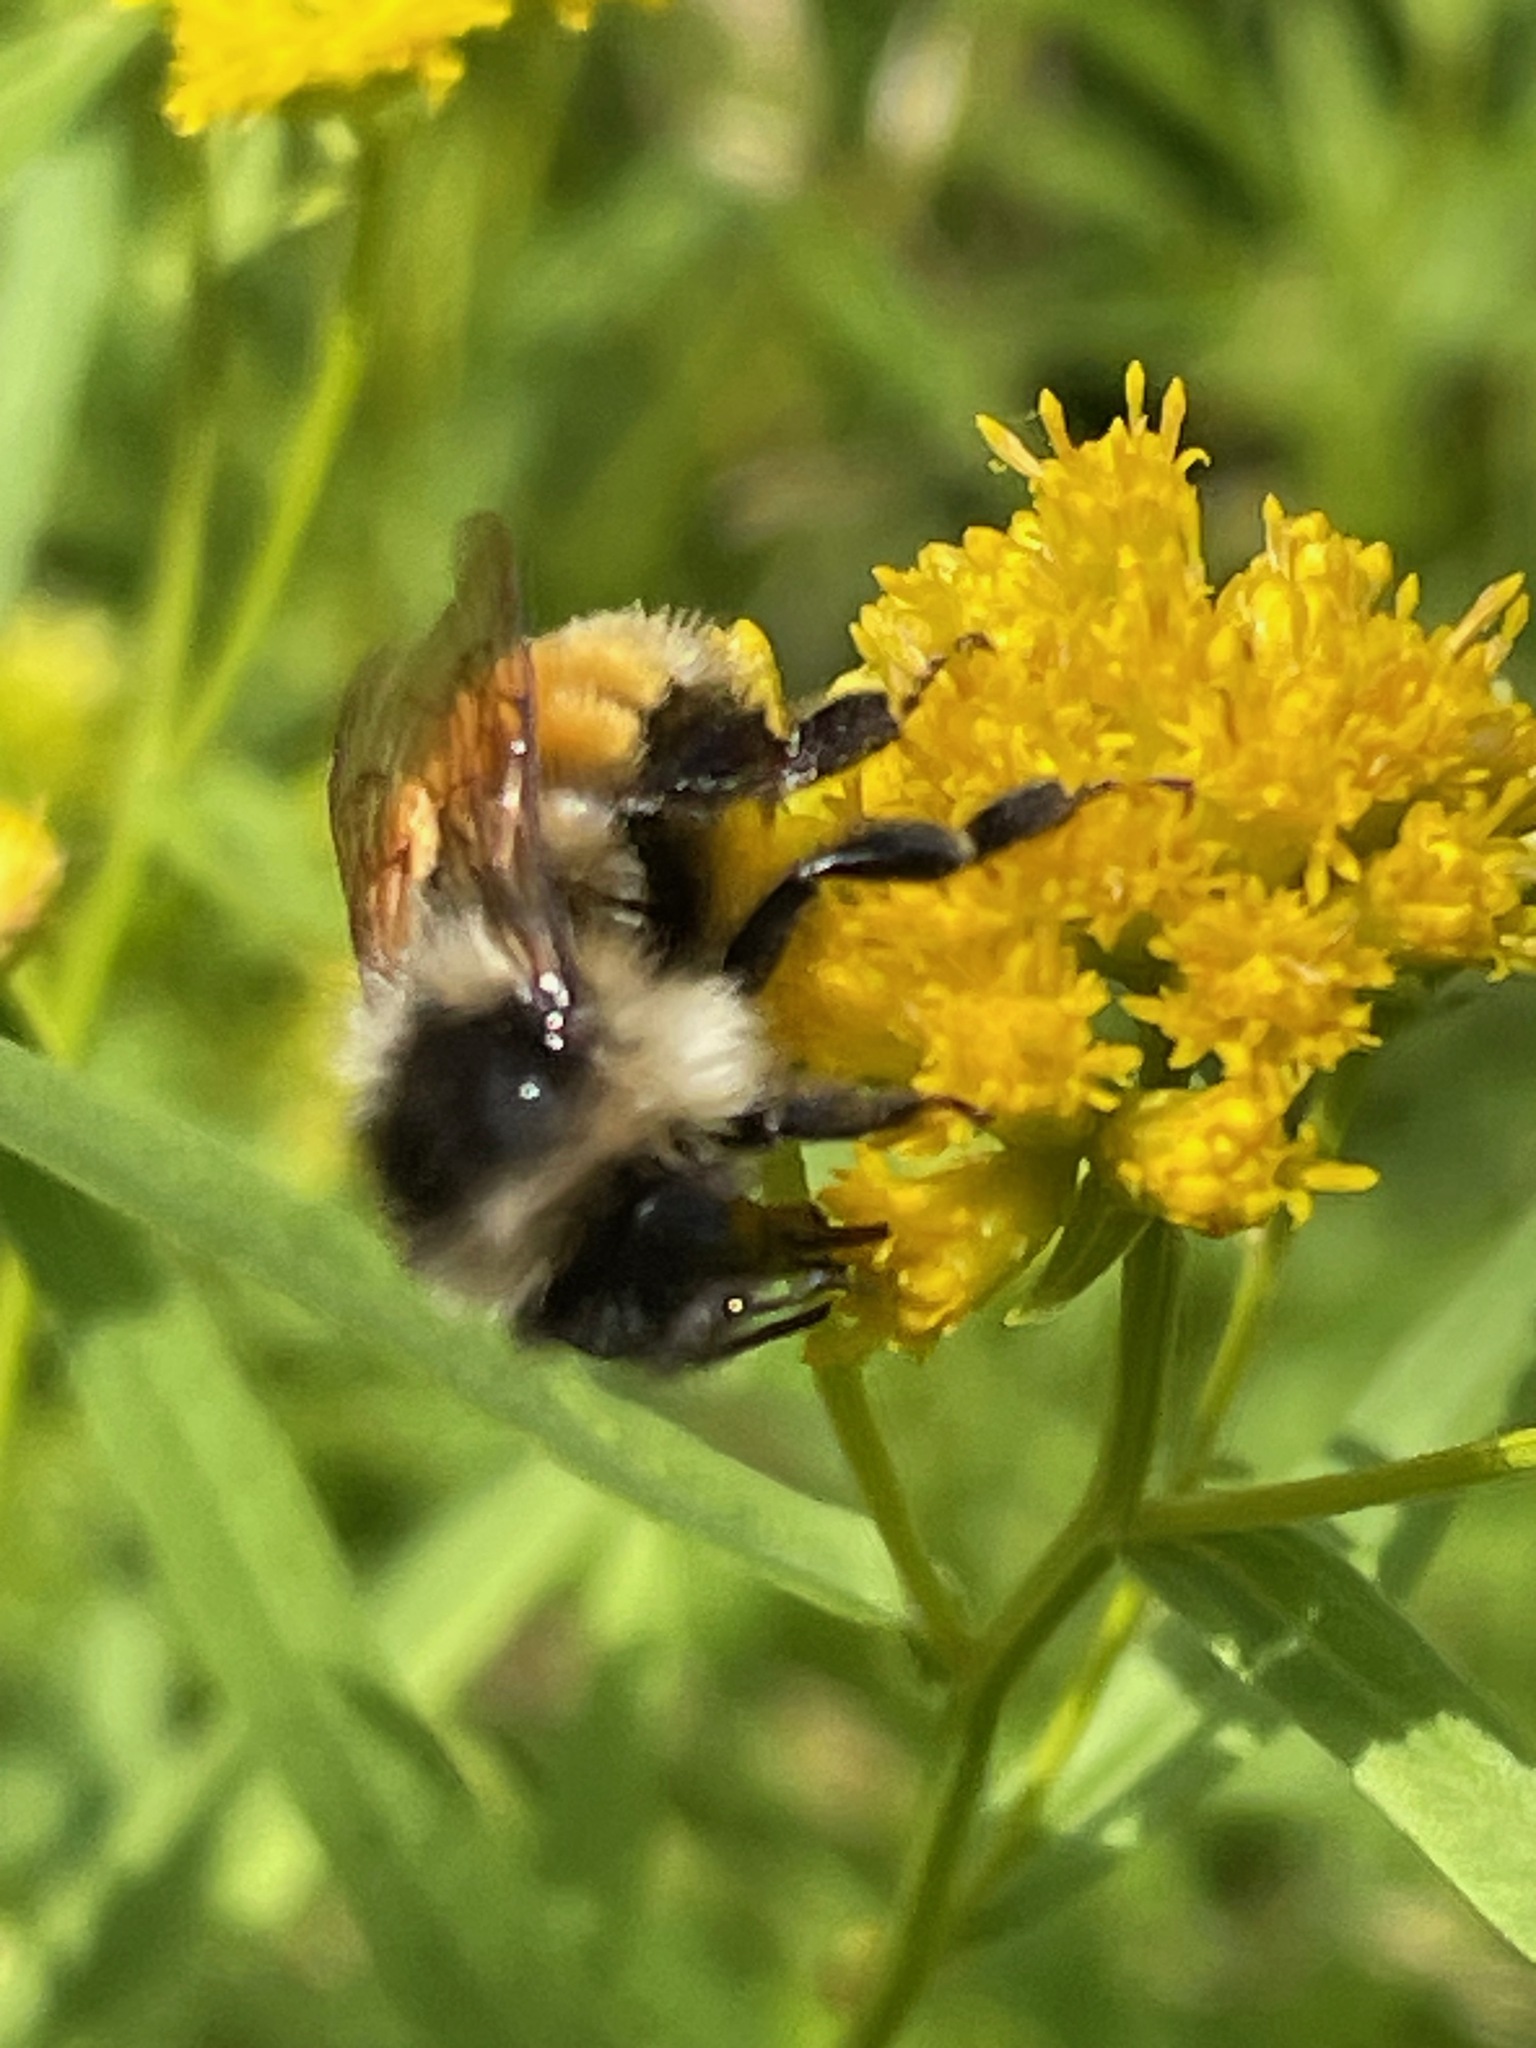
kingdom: Animalia
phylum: Arthropoda
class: Insecta
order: Hymenoptera
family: Apidae
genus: Bombus
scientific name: Bombus ternarius
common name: Tri-colored bumble bee
